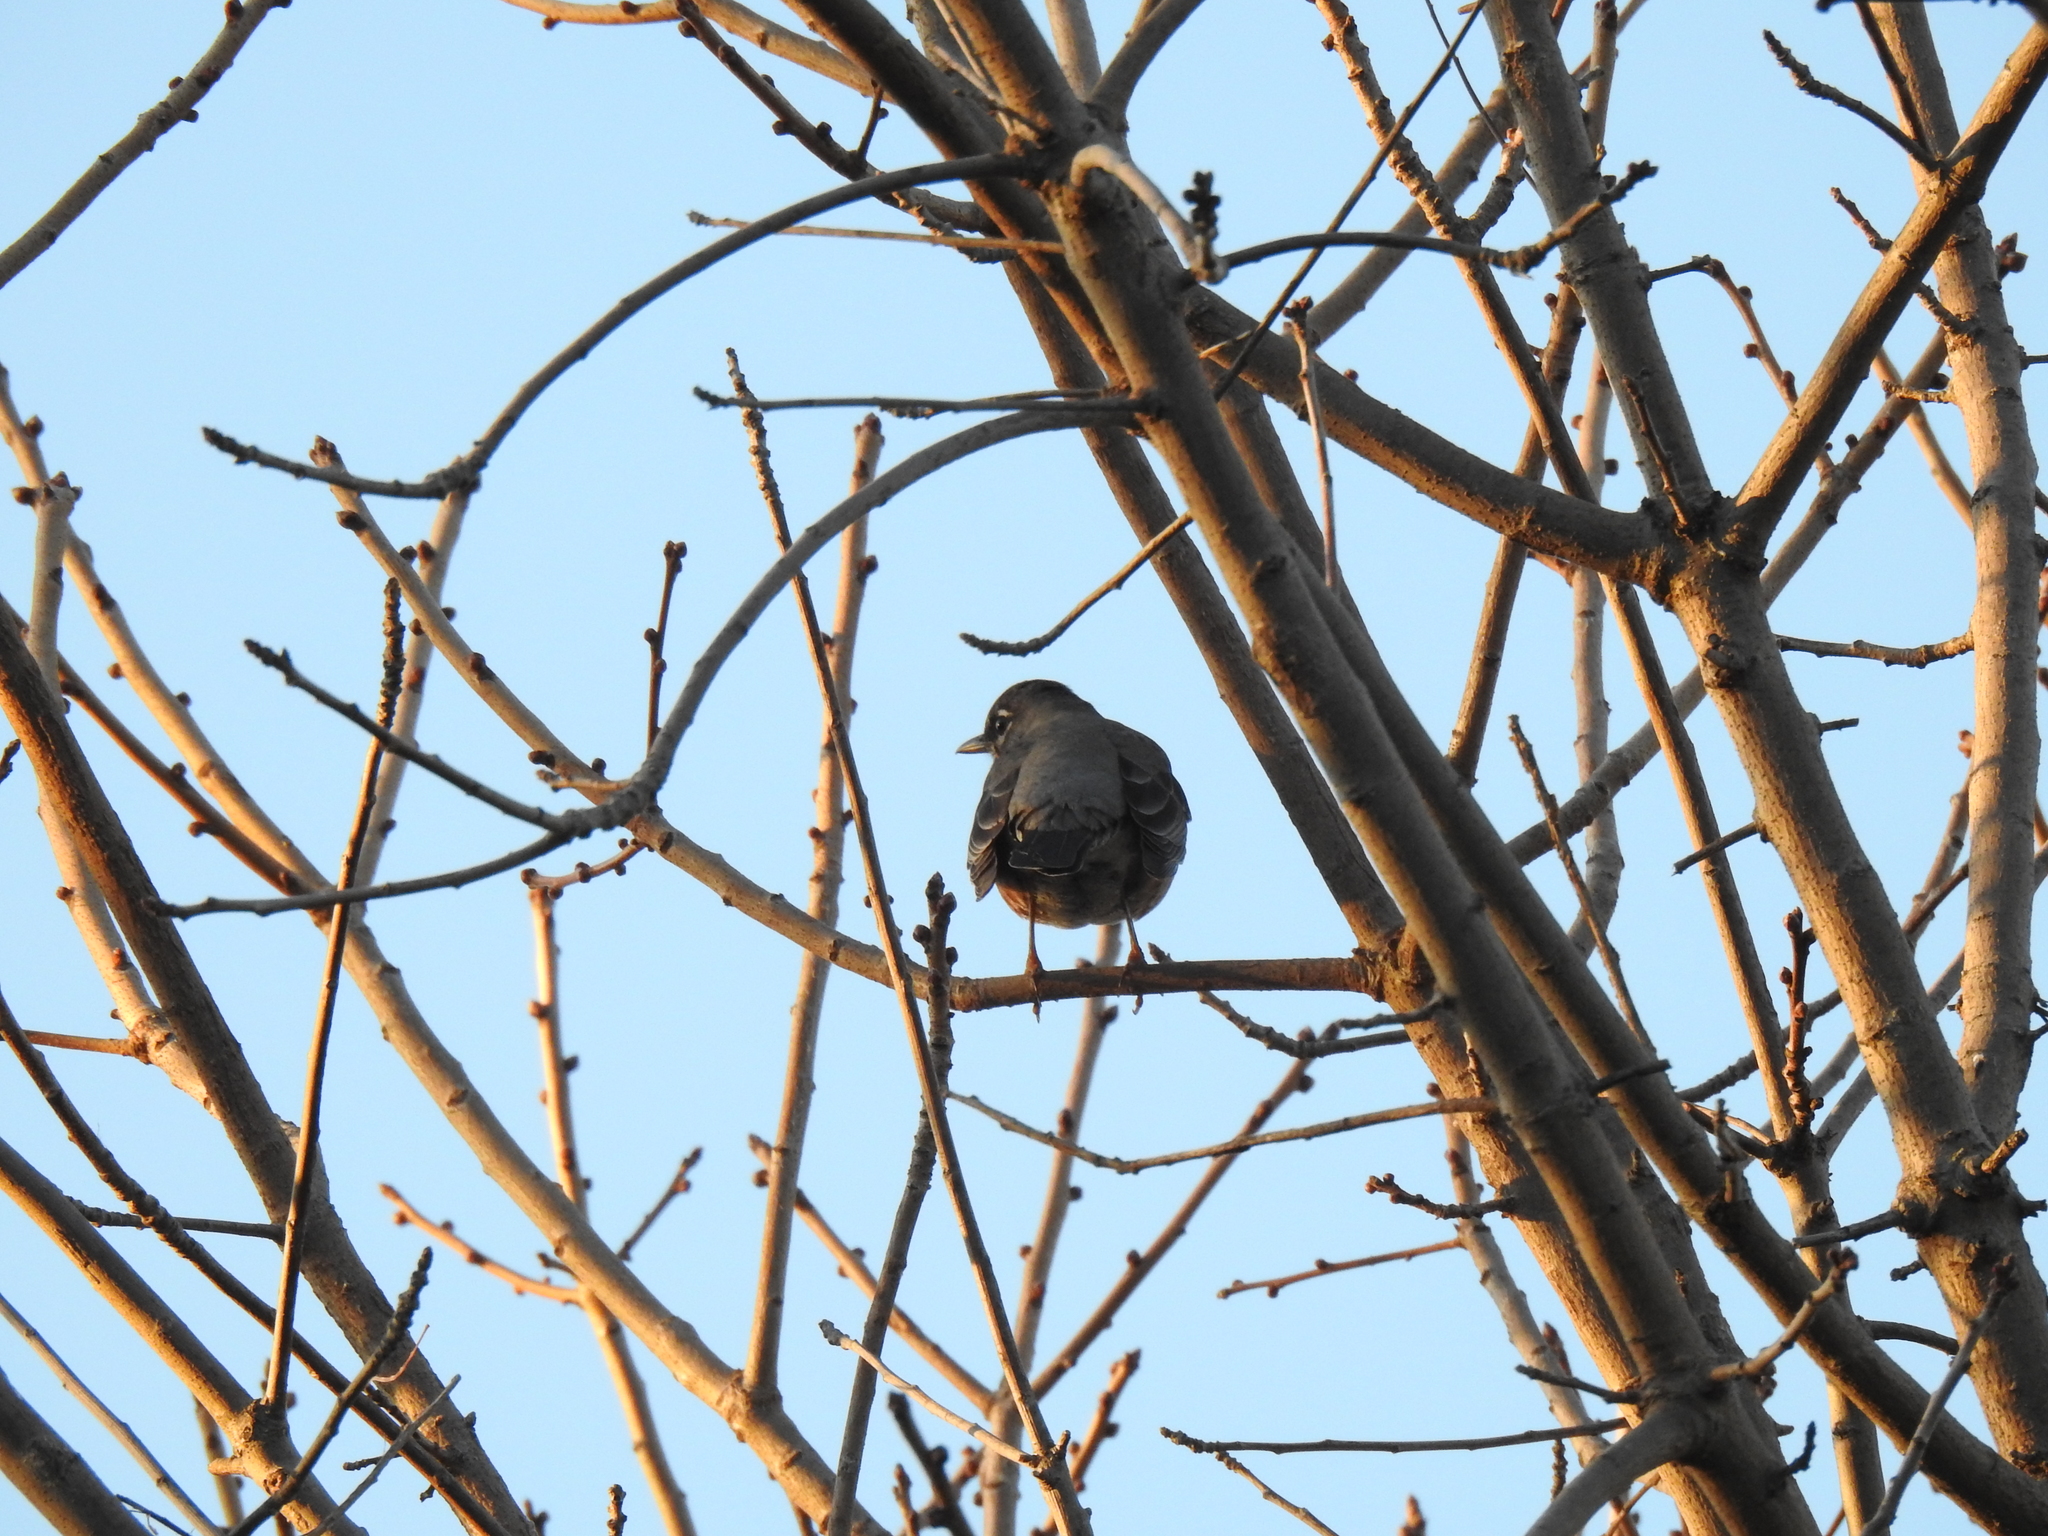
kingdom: Animalia
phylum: Chordata
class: Aves
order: Passeriformes
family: Turdidae
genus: Turdus
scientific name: Turdus migratorius
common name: American robin
